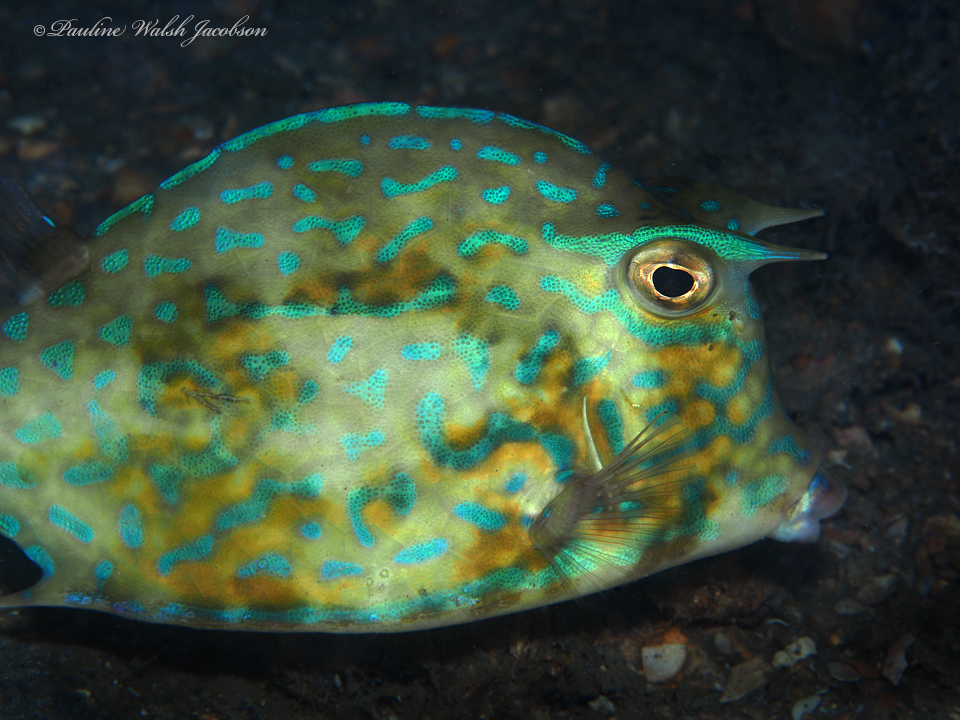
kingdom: Animalia
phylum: Chordata
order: Tetraodontiformes
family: Ostraciidae
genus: Acanthostracion
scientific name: Acanthostracion quadricornis
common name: Scrawled cowfish
